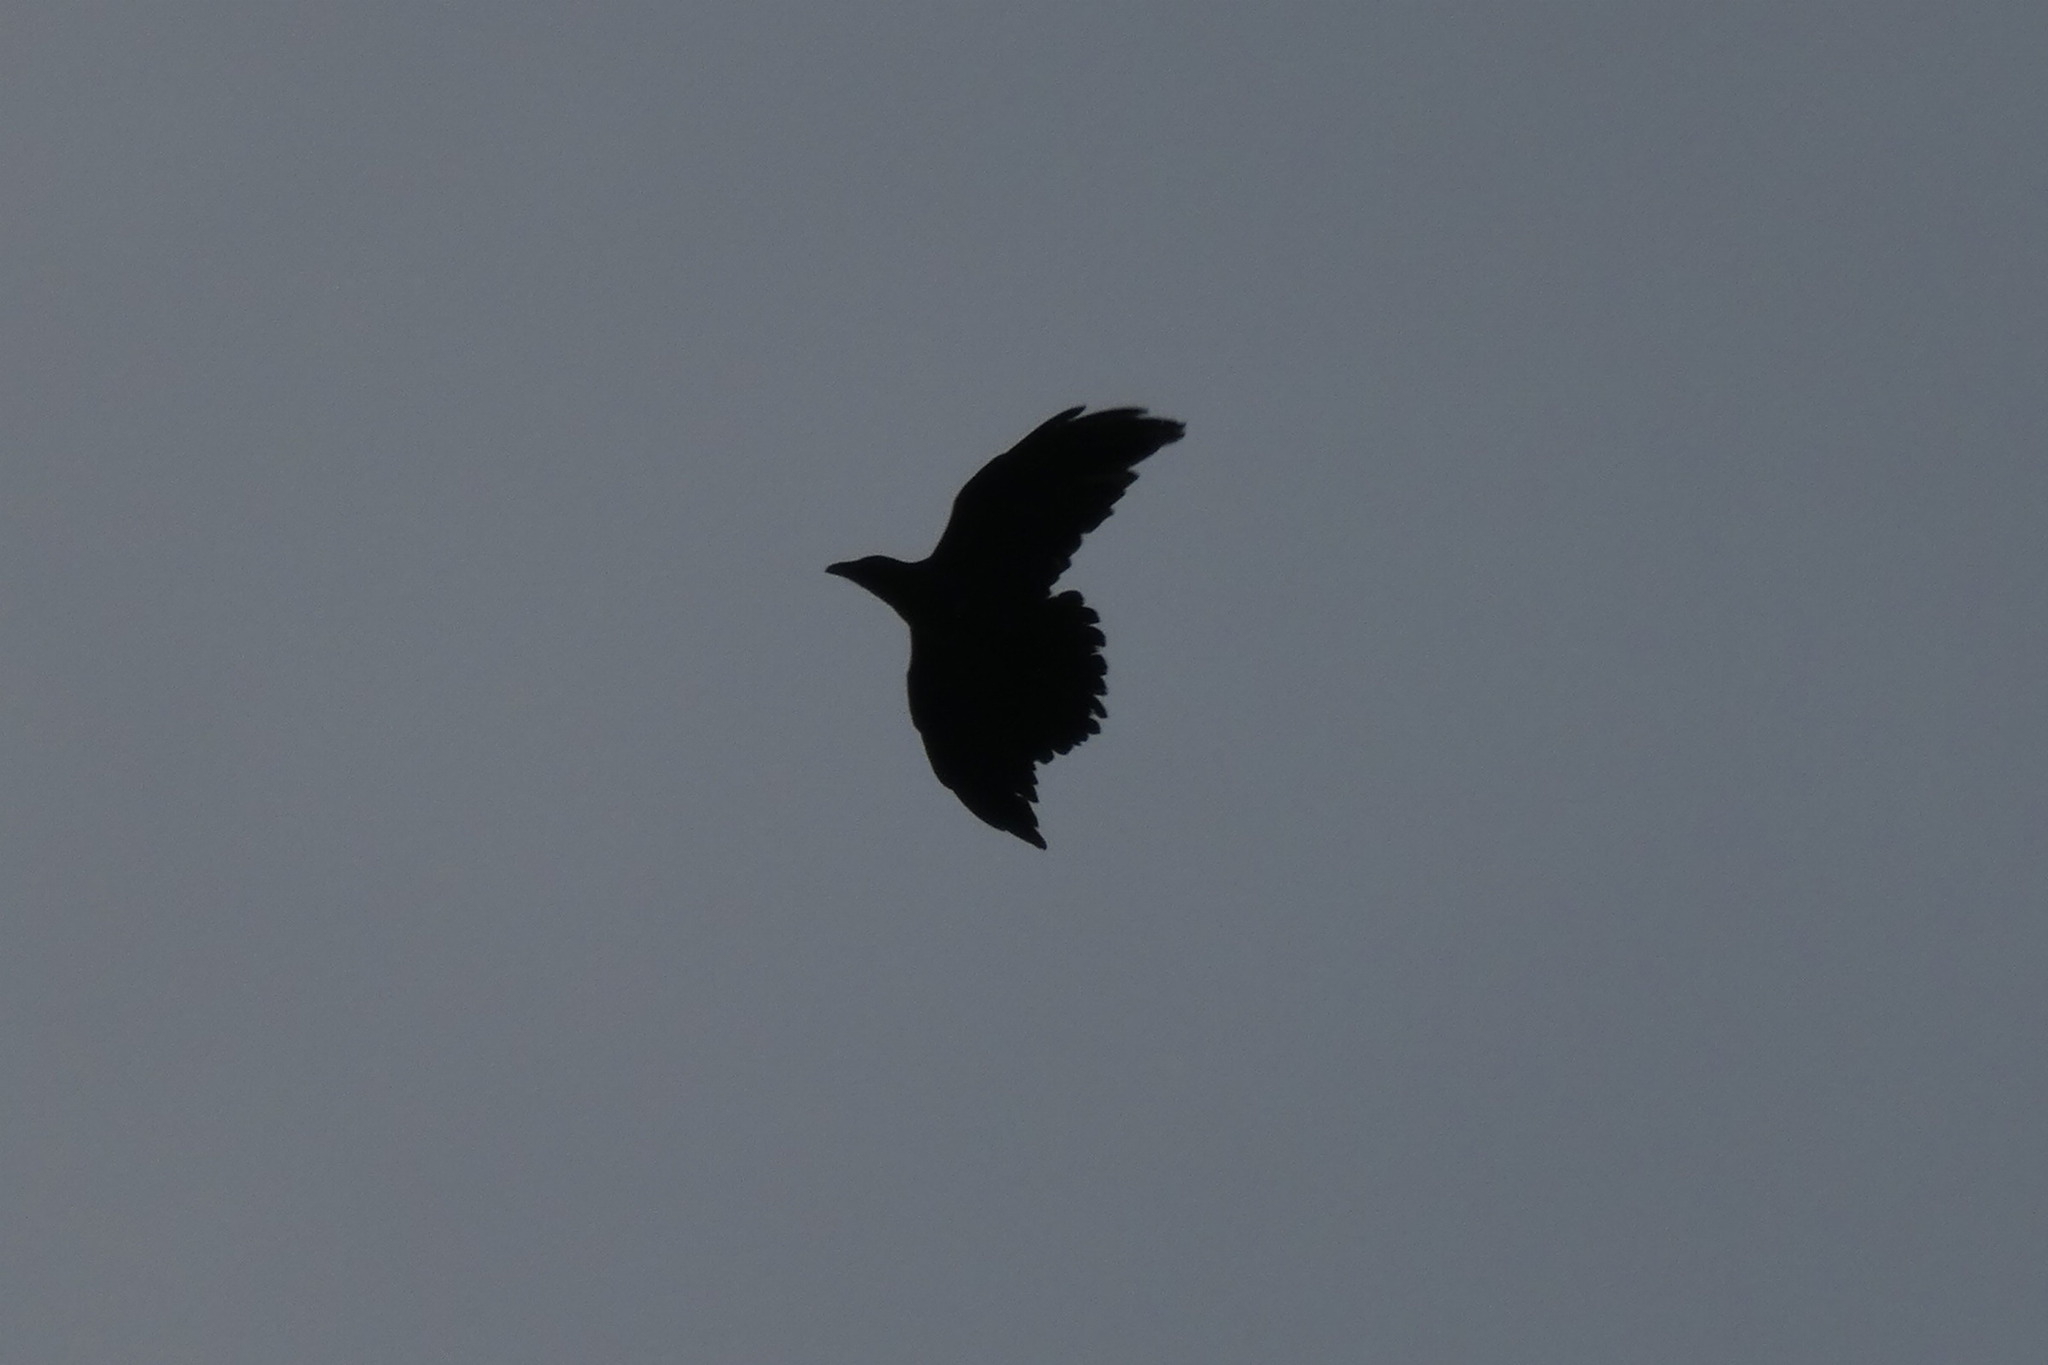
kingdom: Animalia
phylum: Chordata
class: Aves
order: Passeriformes
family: Corvidae
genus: Corvus
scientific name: Corvus corax
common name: Common raven
